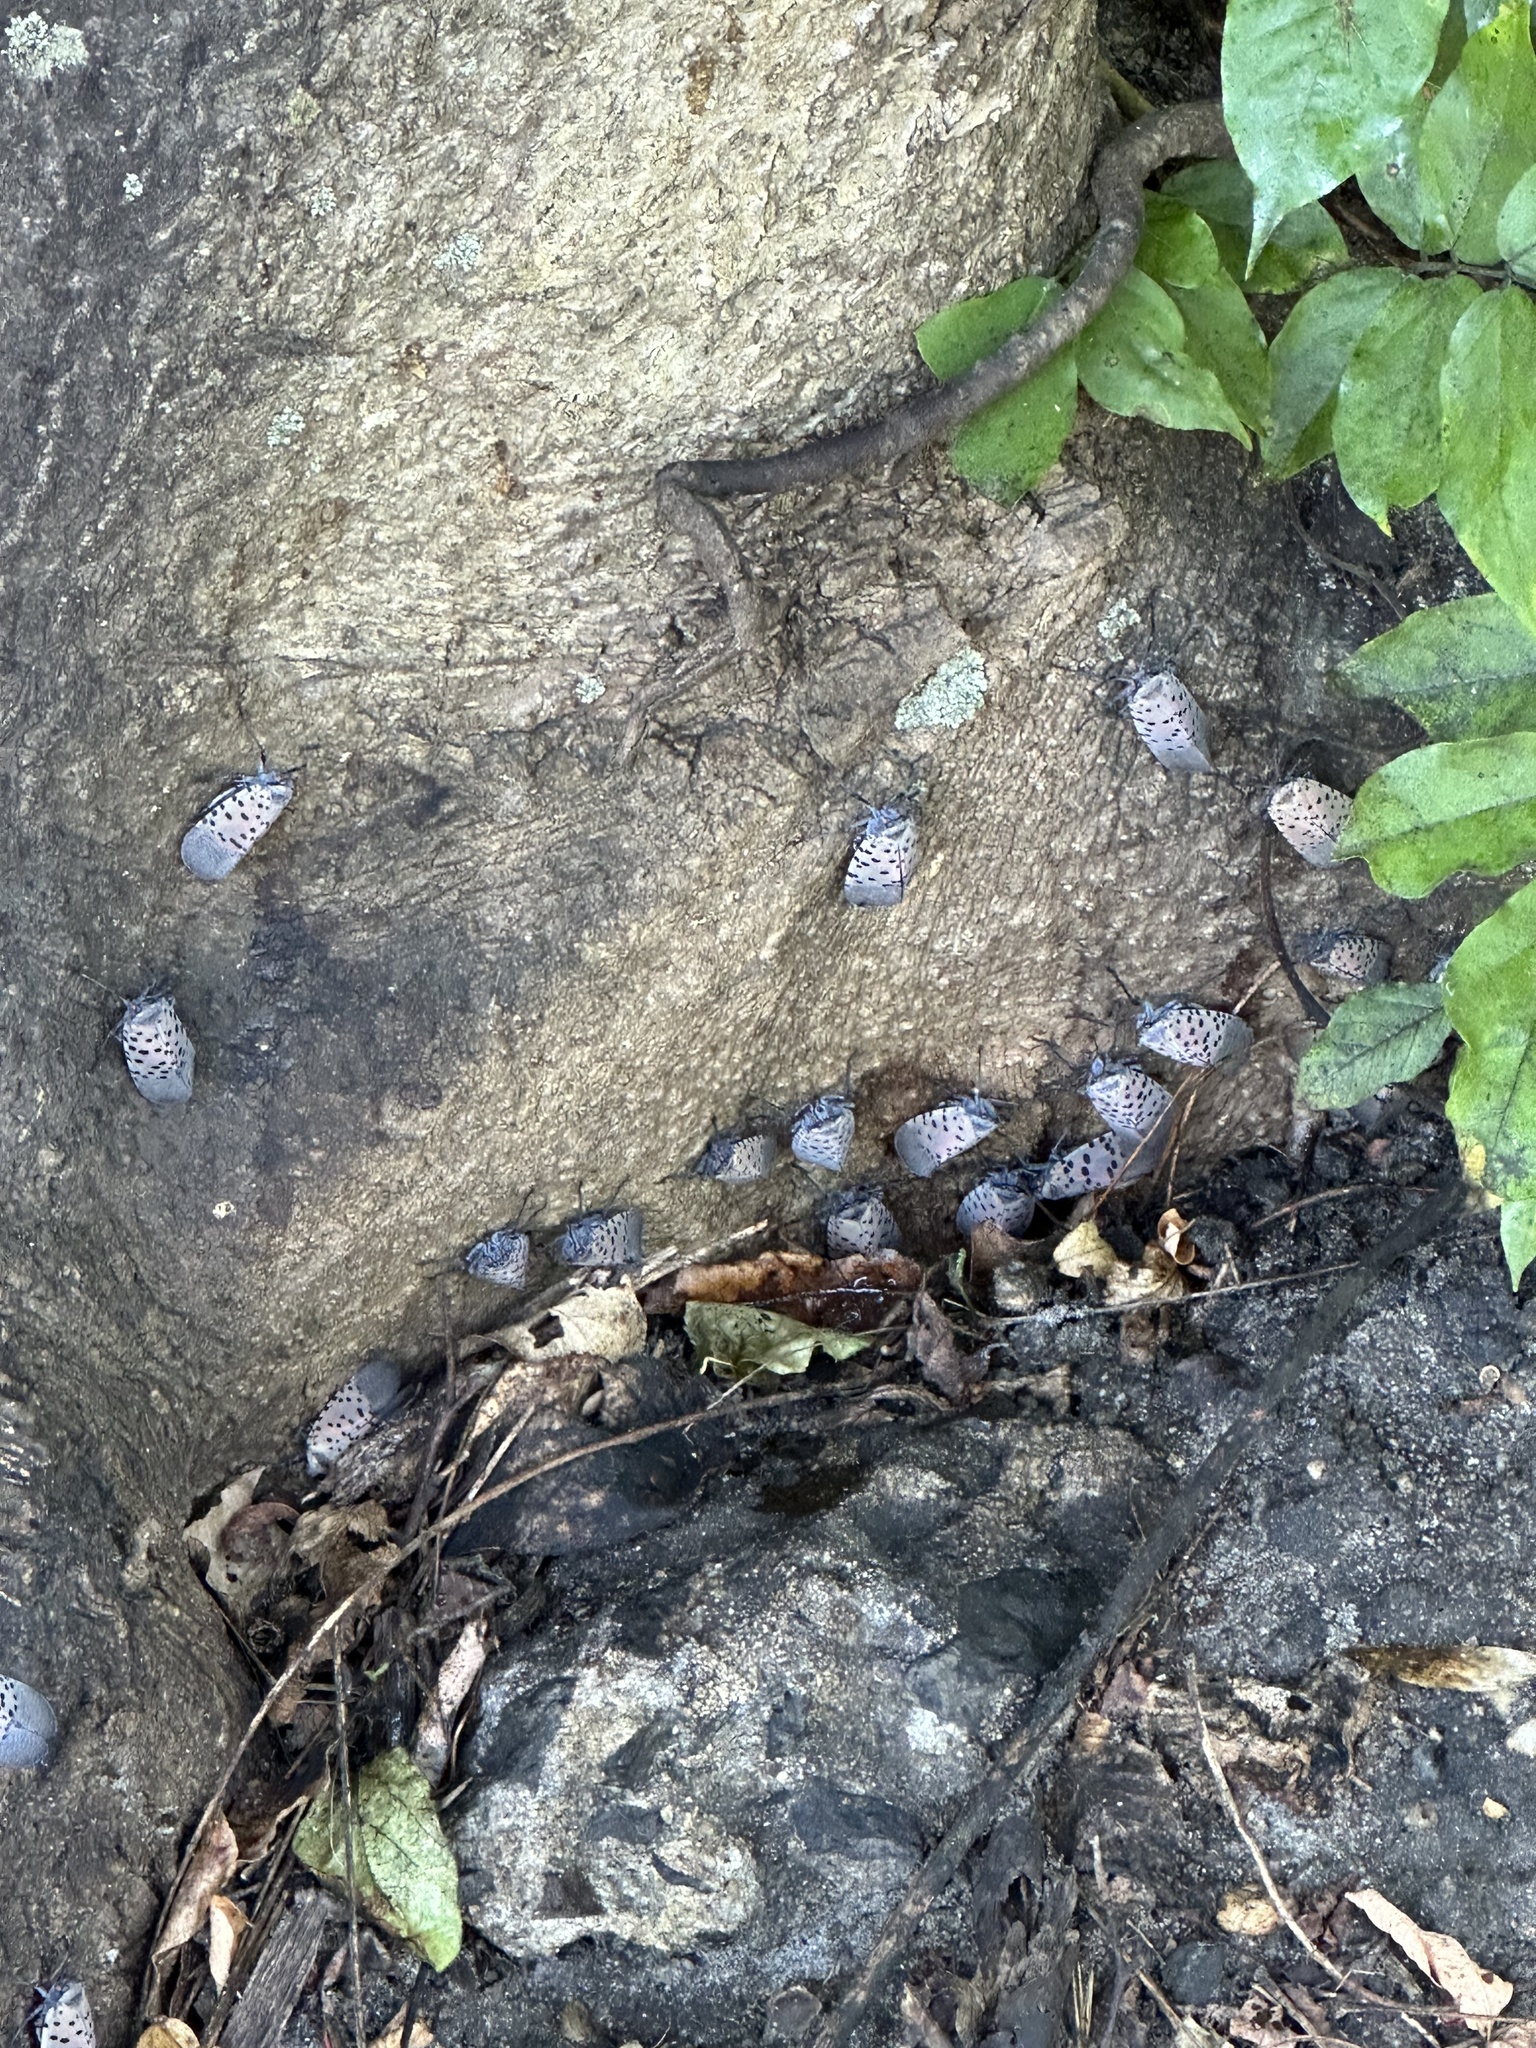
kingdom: Animalia
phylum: Arthropoda
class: Insecta
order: Hemiptera
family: Fulgoridae
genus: Lycorma
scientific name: Lycorma delicatula
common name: Spotted lanternfly
